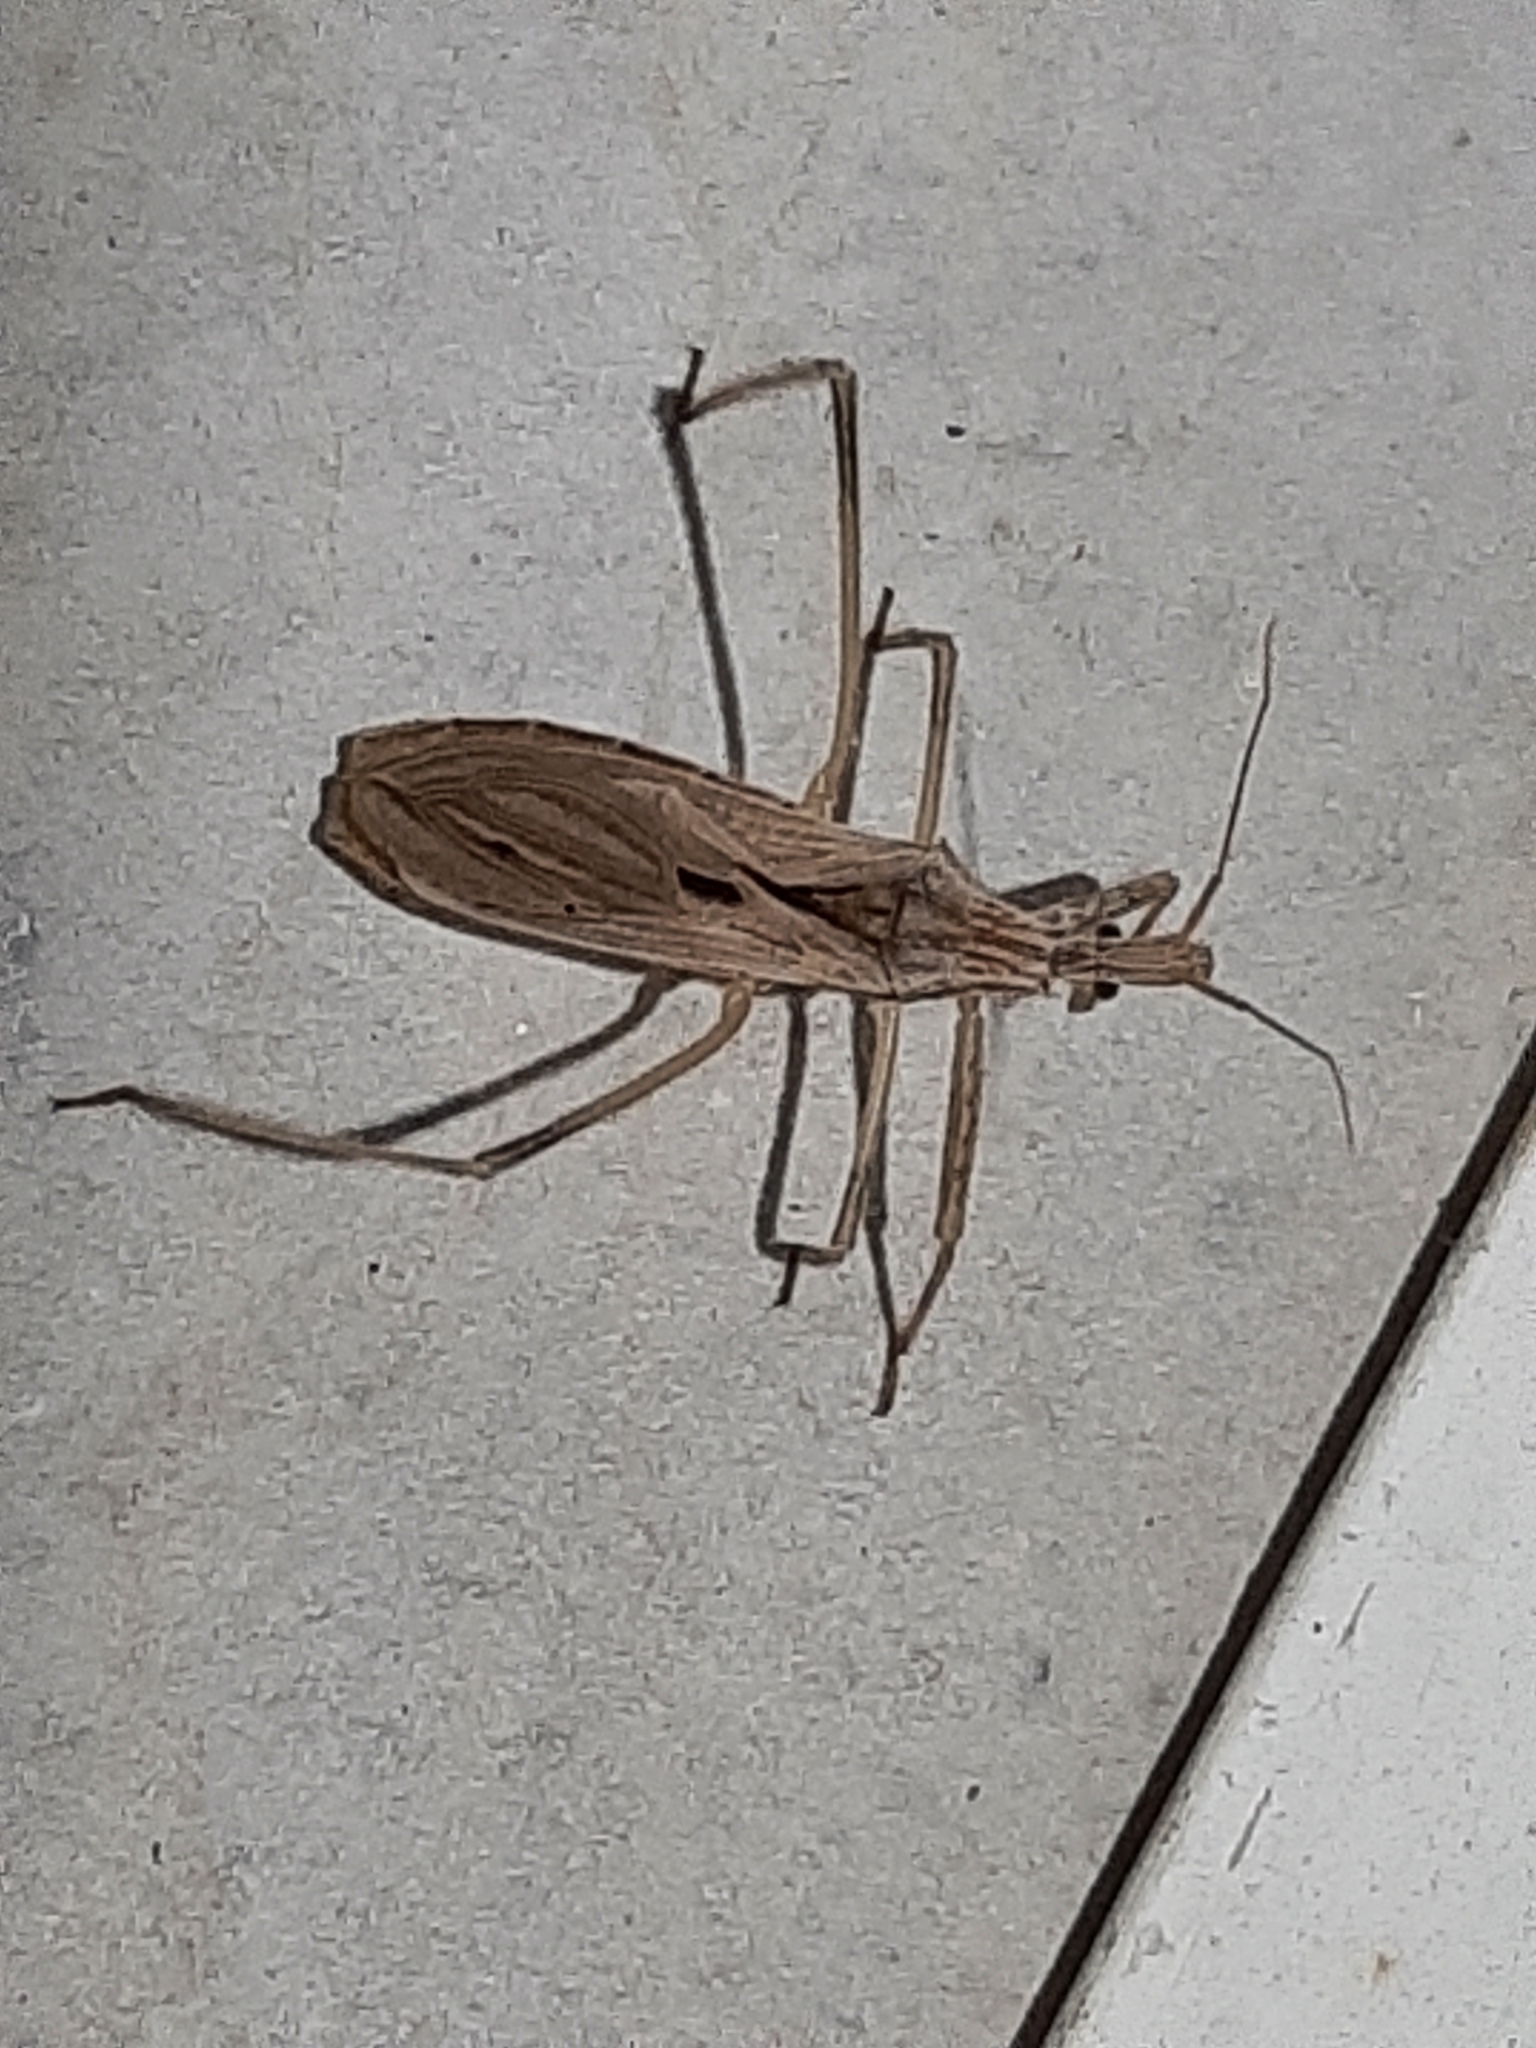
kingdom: Animalia
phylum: Arthropoda
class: Insecta
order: Hemiptera
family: Reduviidae
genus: Stenopoda
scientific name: Stenopoda spinulosa
